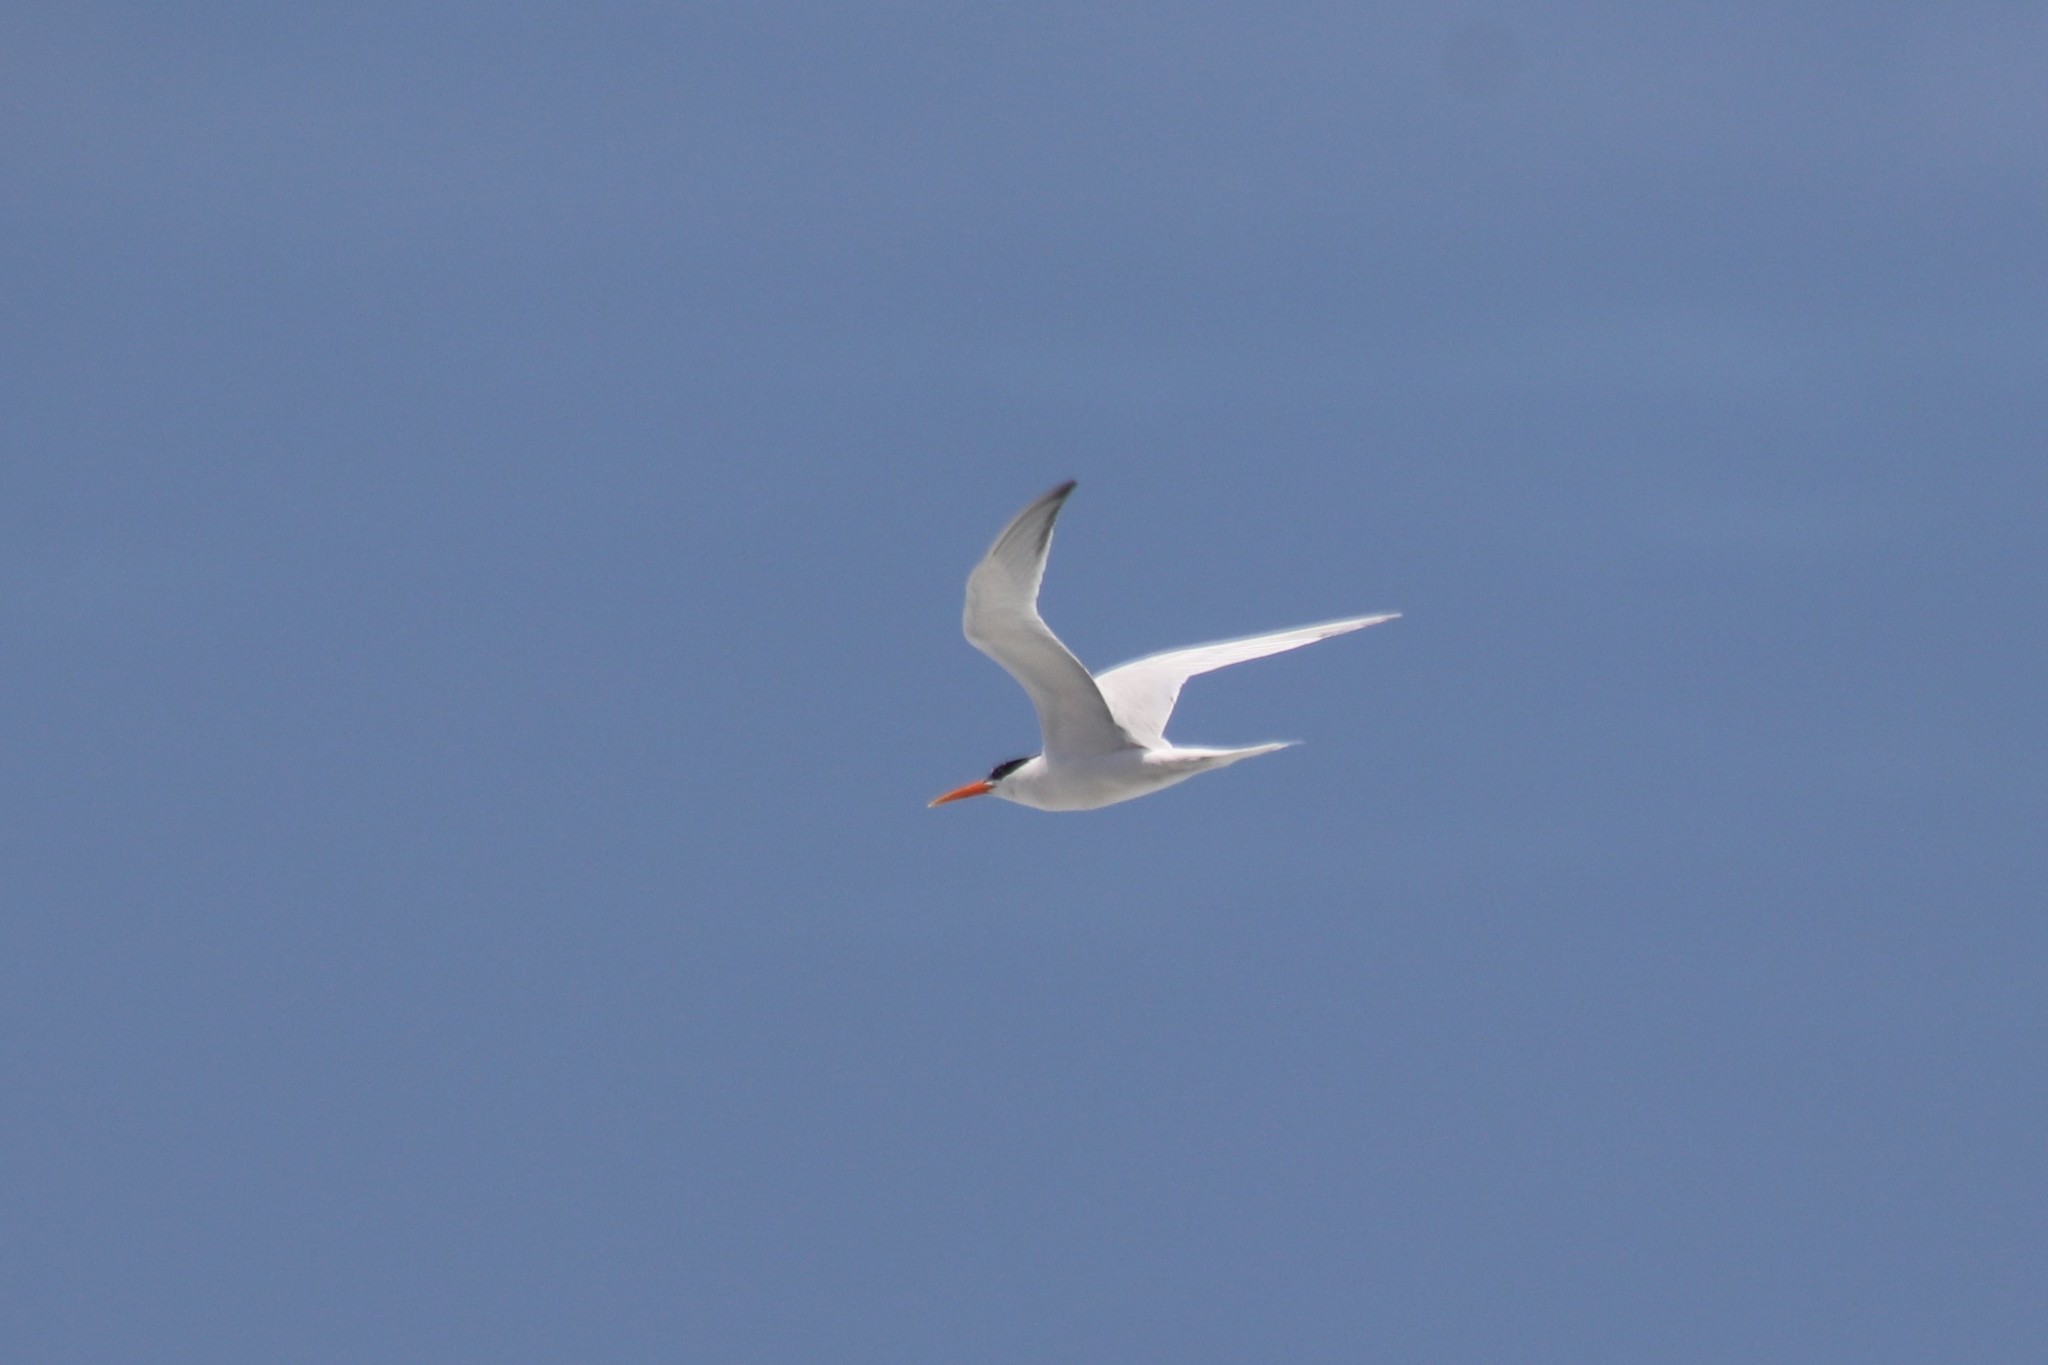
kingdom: Animalia
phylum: Chordata
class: Aves
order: Charadriiformes
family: Laridae
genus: Thalasseus
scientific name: Thalasseus elegans
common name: Elegant tern
